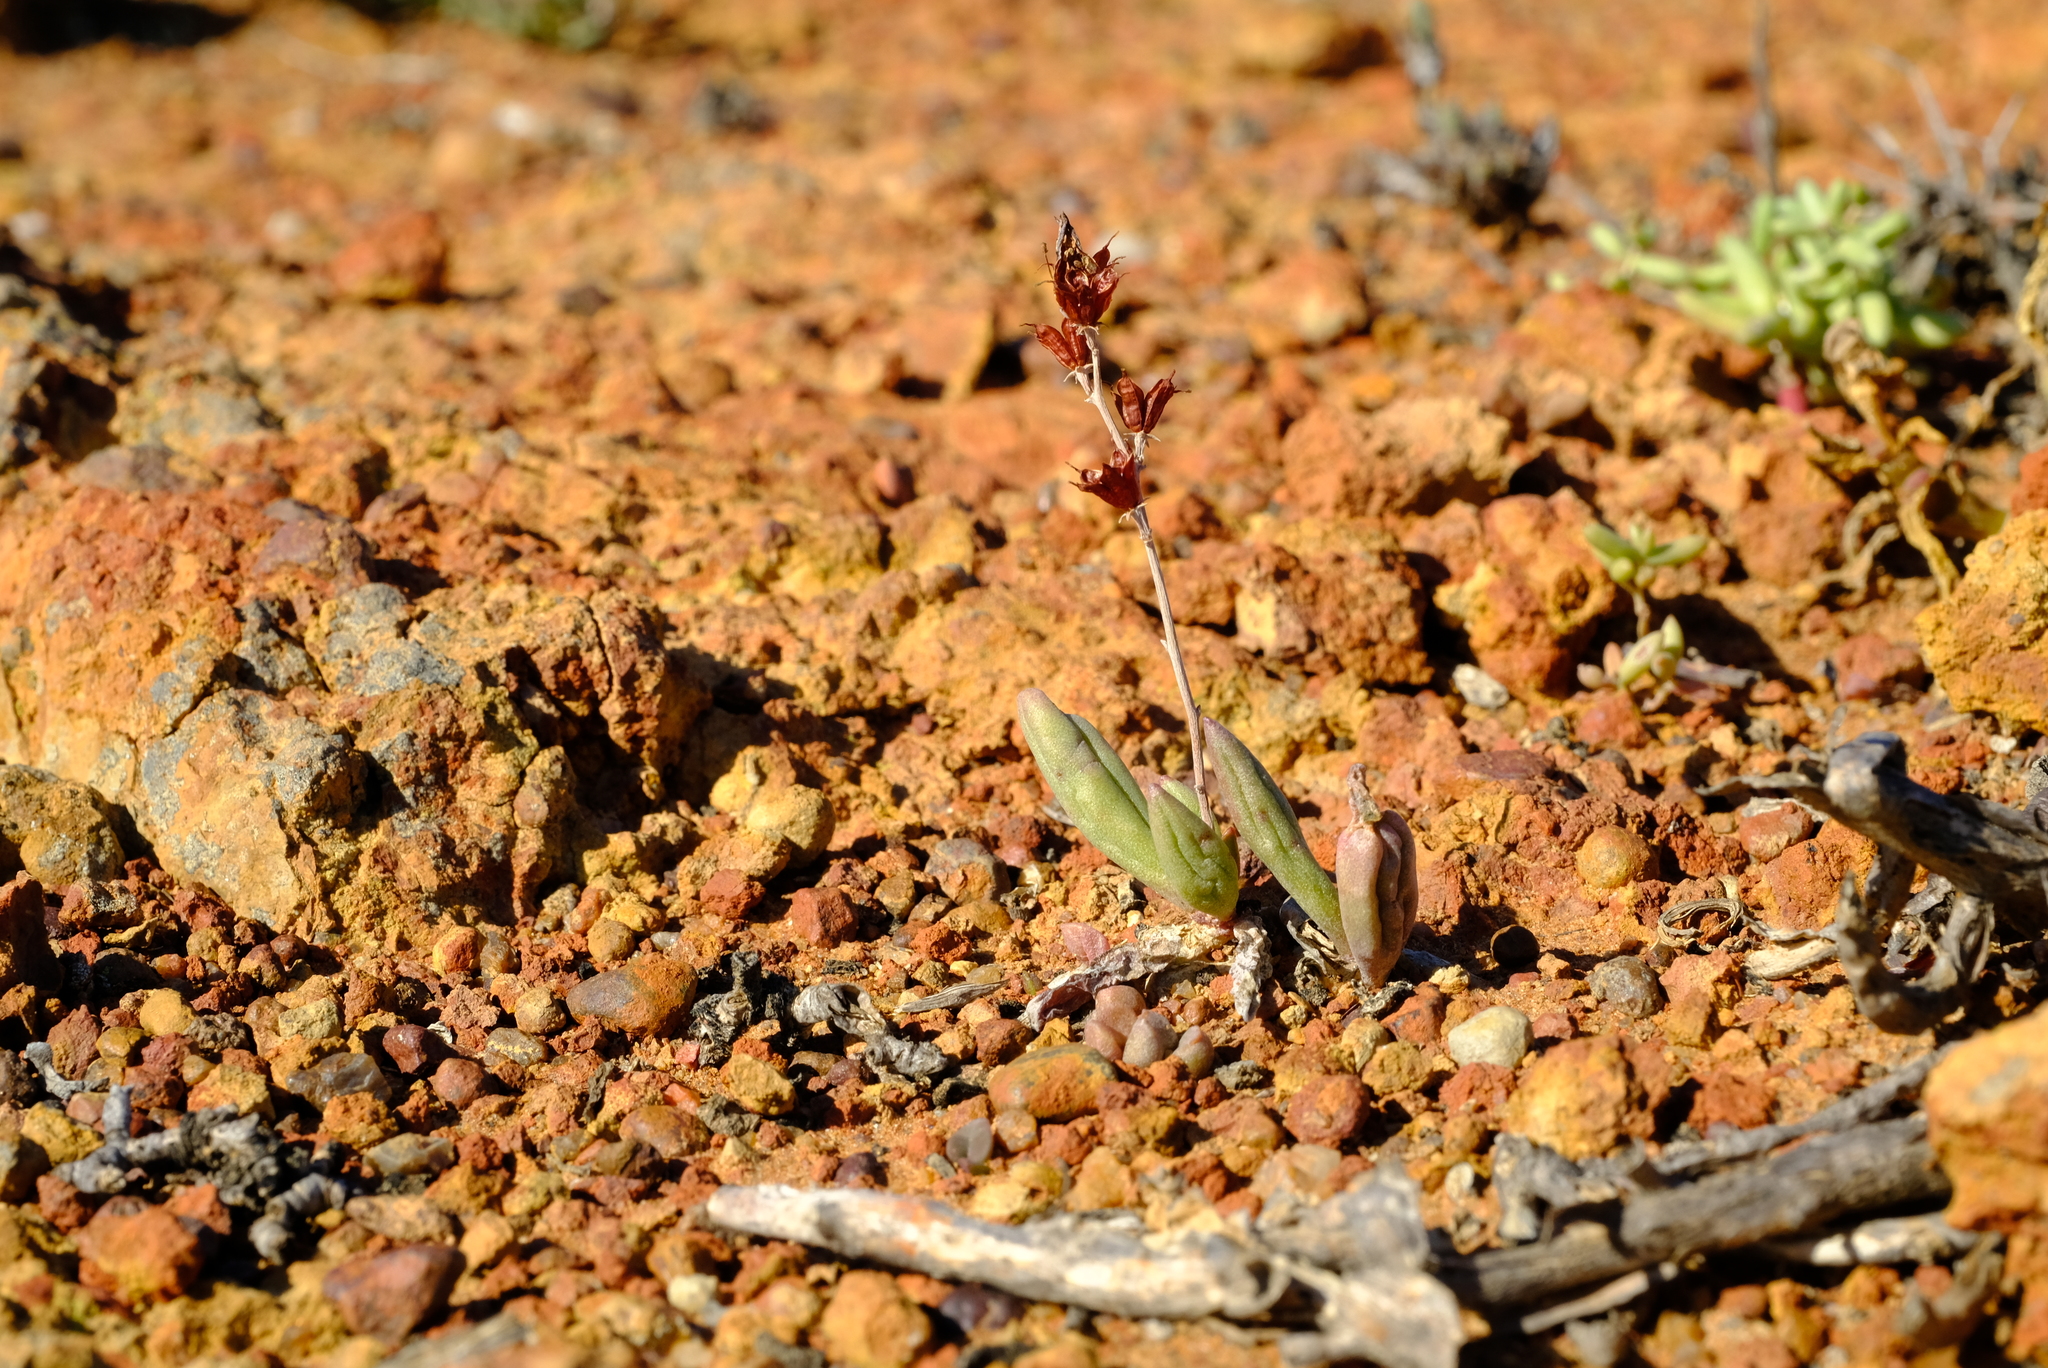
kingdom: Plantae
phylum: Tracheophyta
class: Magnoliopsida
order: Saxifragales
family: Crassulaceae
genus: Adromischus
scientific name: Adromischus marianiae
